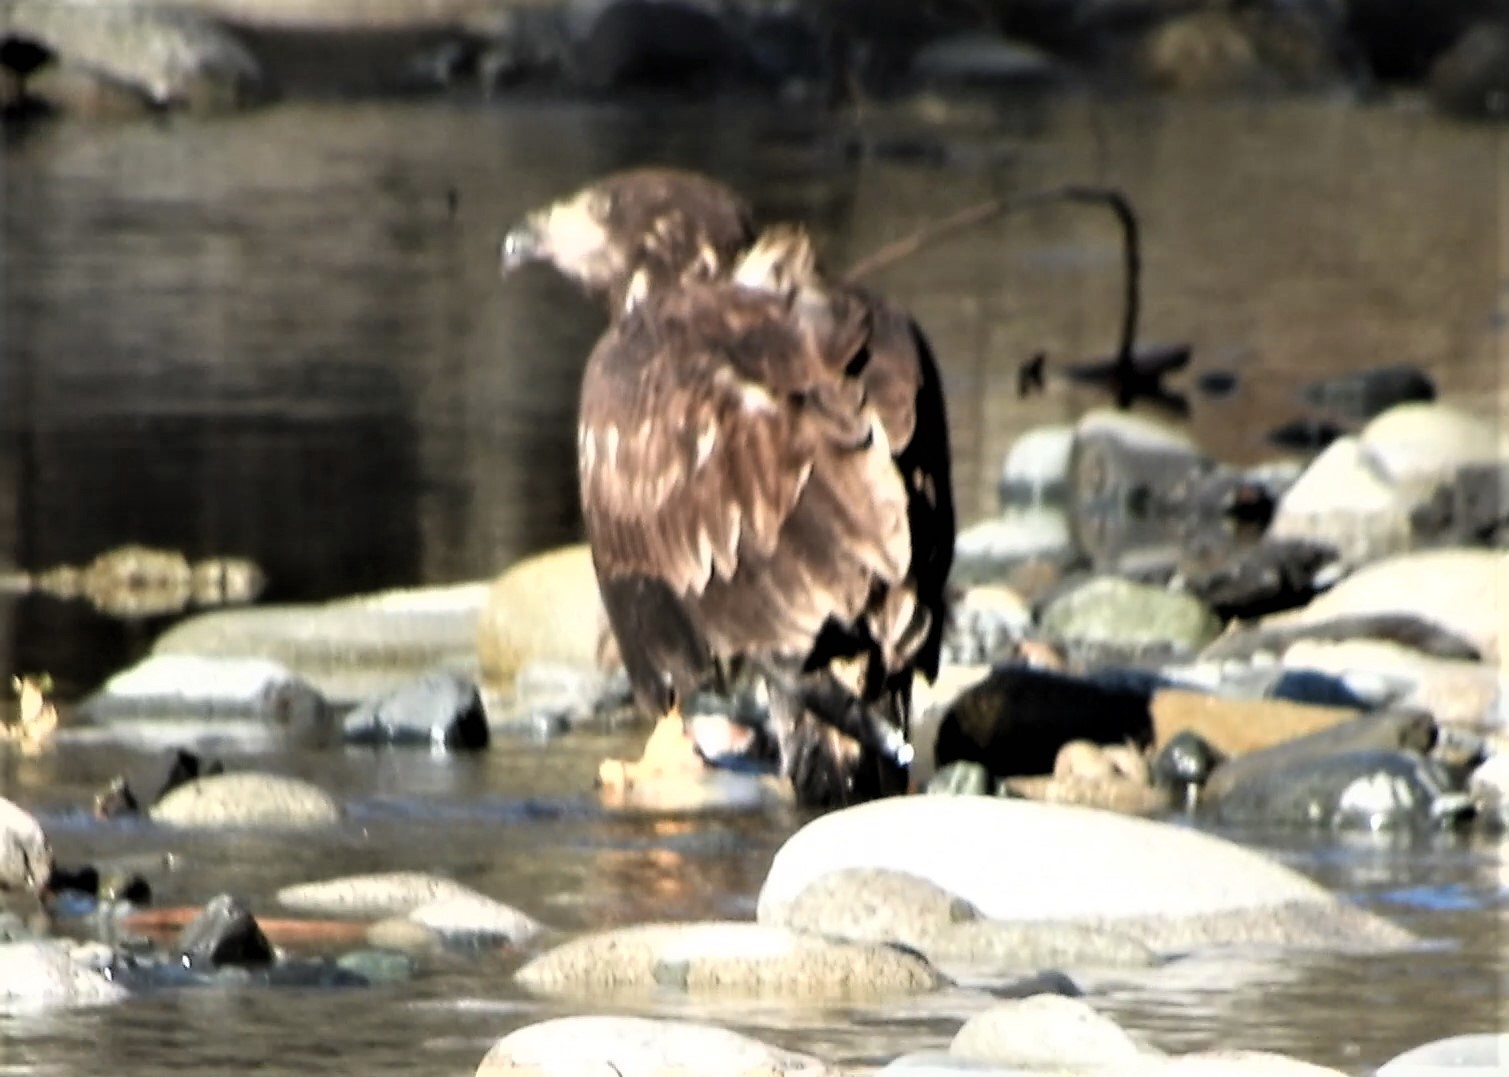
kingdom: Animalia
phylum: Chordata
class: Aves
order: Accipitriformes
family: Accipitridae
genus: Haliaeetus
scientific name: Haliaeetus leucocephalus
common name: Bald eagle
